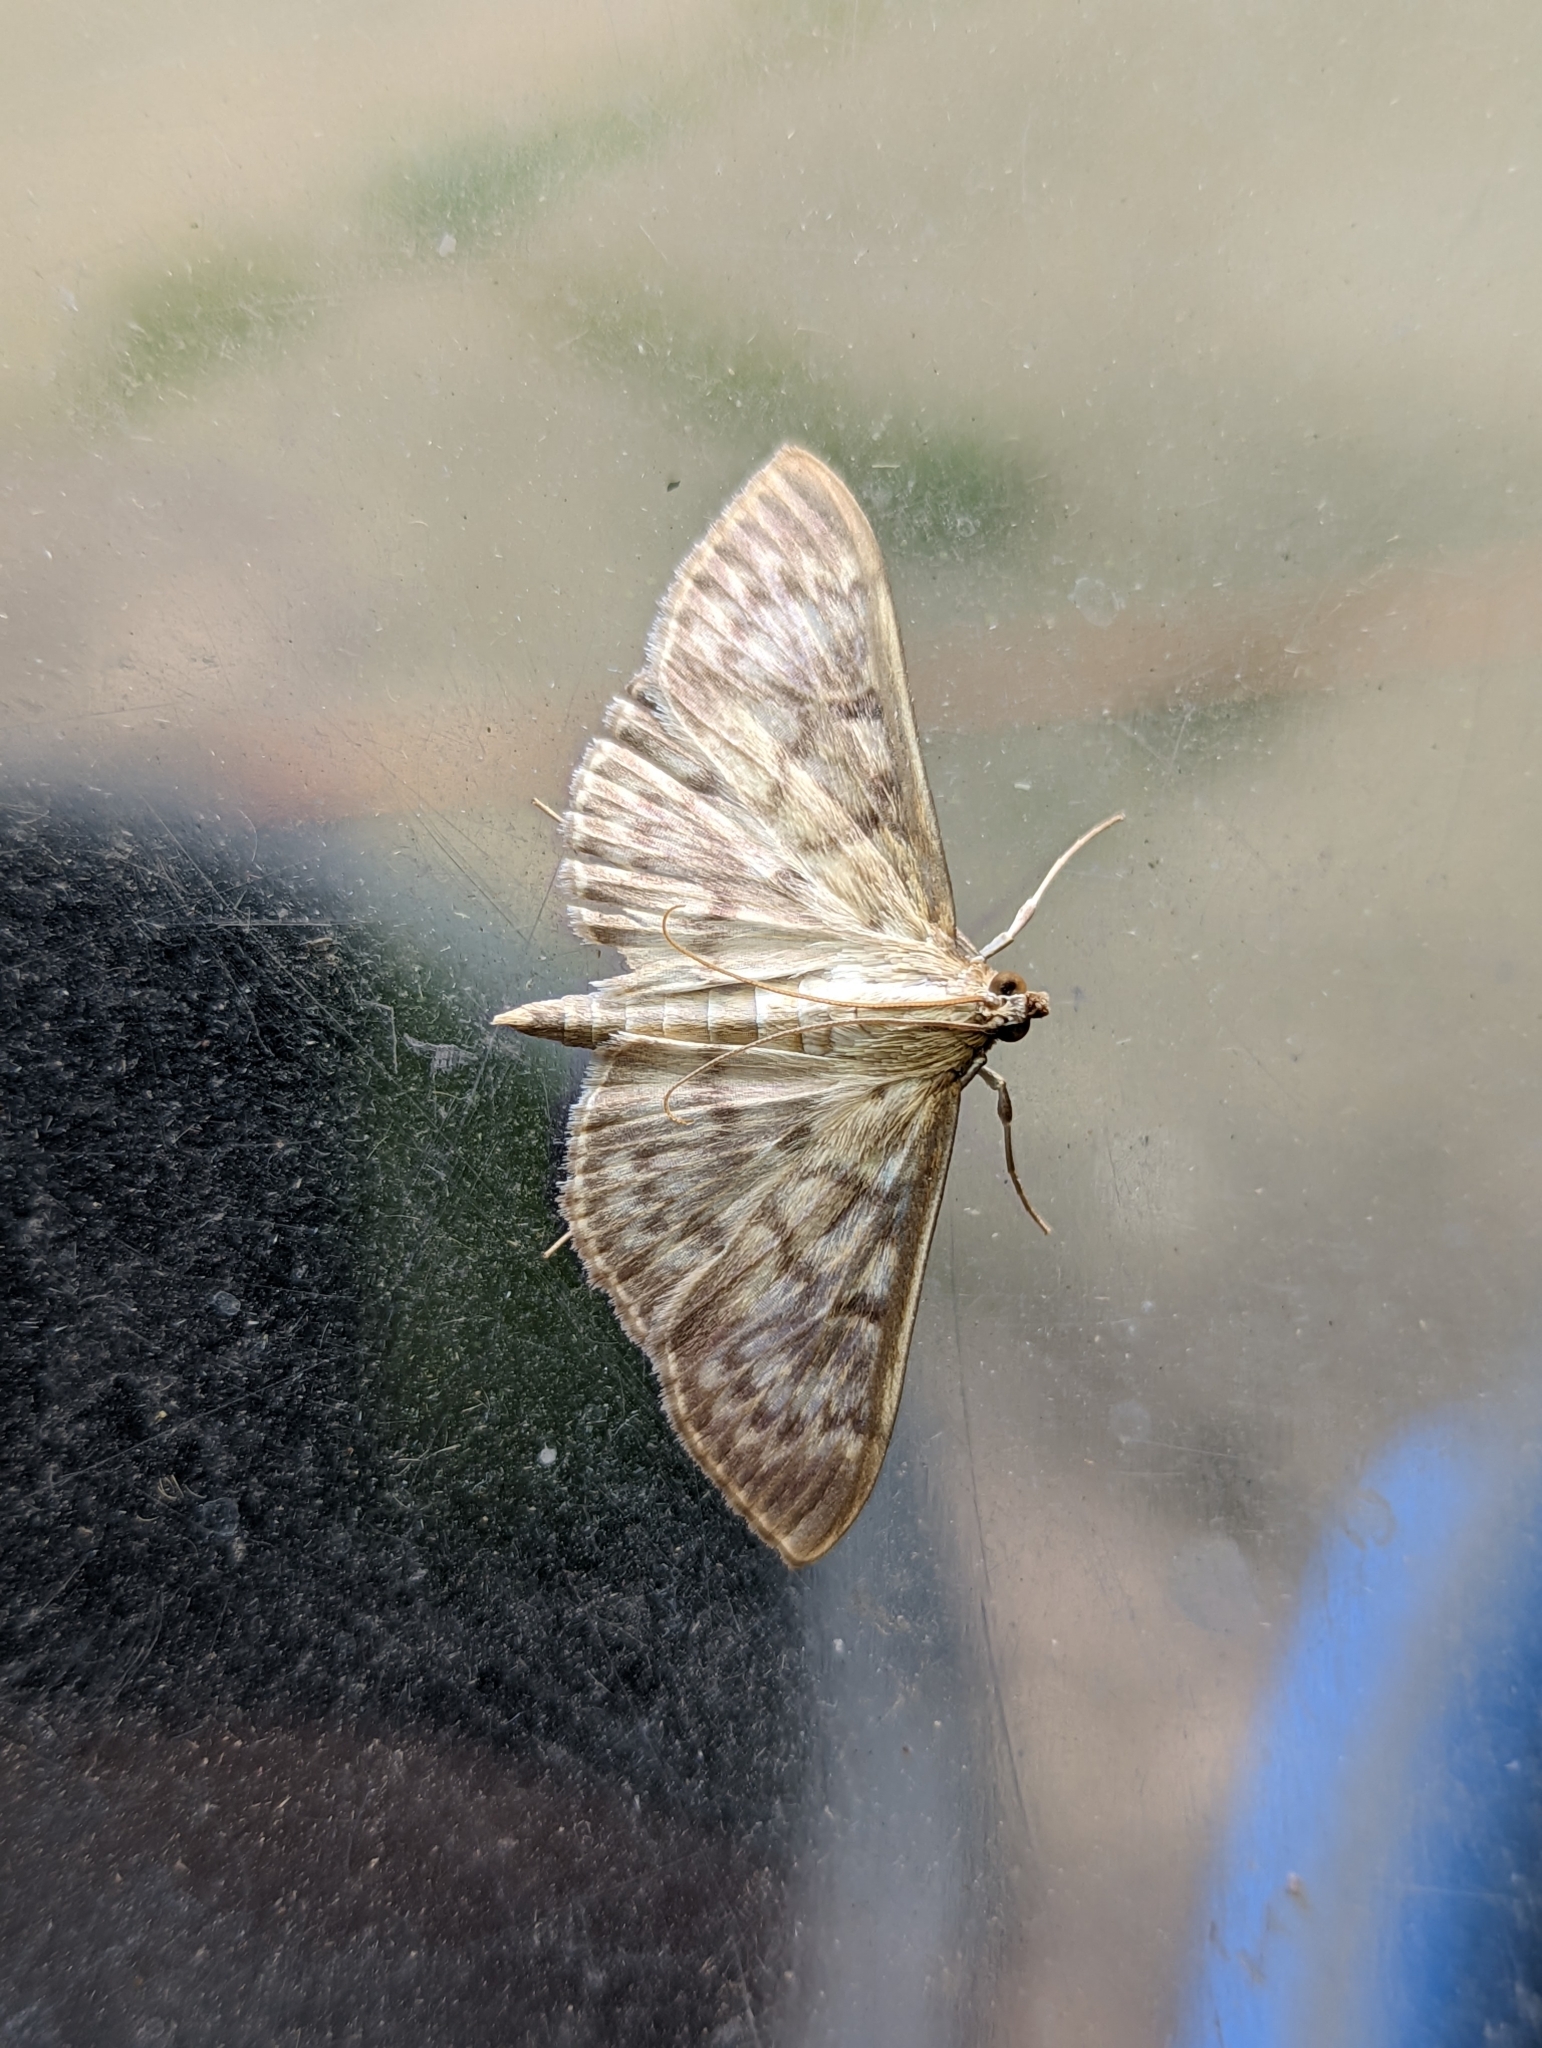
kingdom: Animalia
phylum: Arthropoda
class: Insecta
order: Lepidoptera
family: Crambidae
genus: Patania
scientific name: Patania ruralis
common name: Mother of pearl
